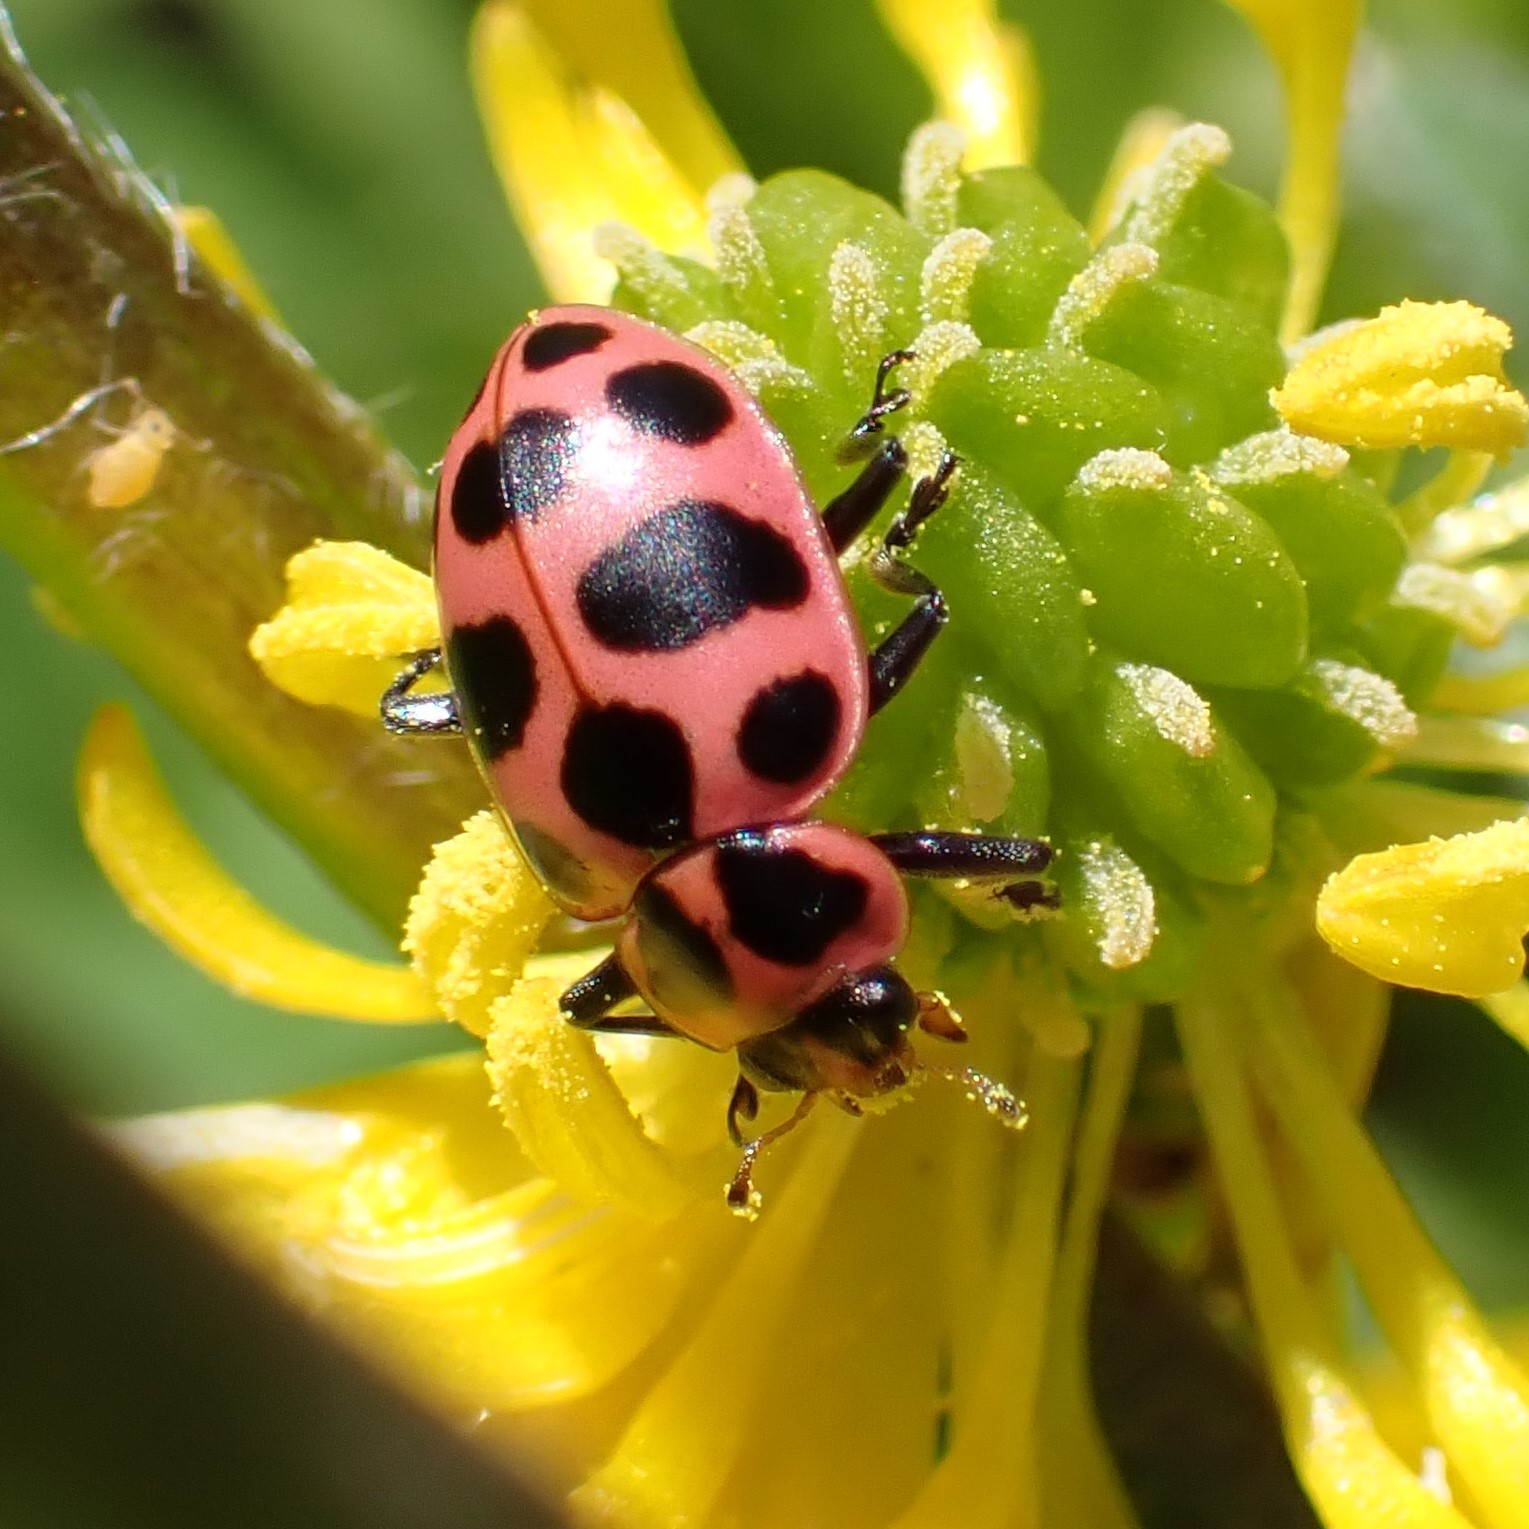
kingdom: Animalia
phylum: Arthropoda
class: Insecta
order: Coleoptera
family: Coccinellidae
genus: Coleomegilla
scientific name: Coleomegilla maculata
